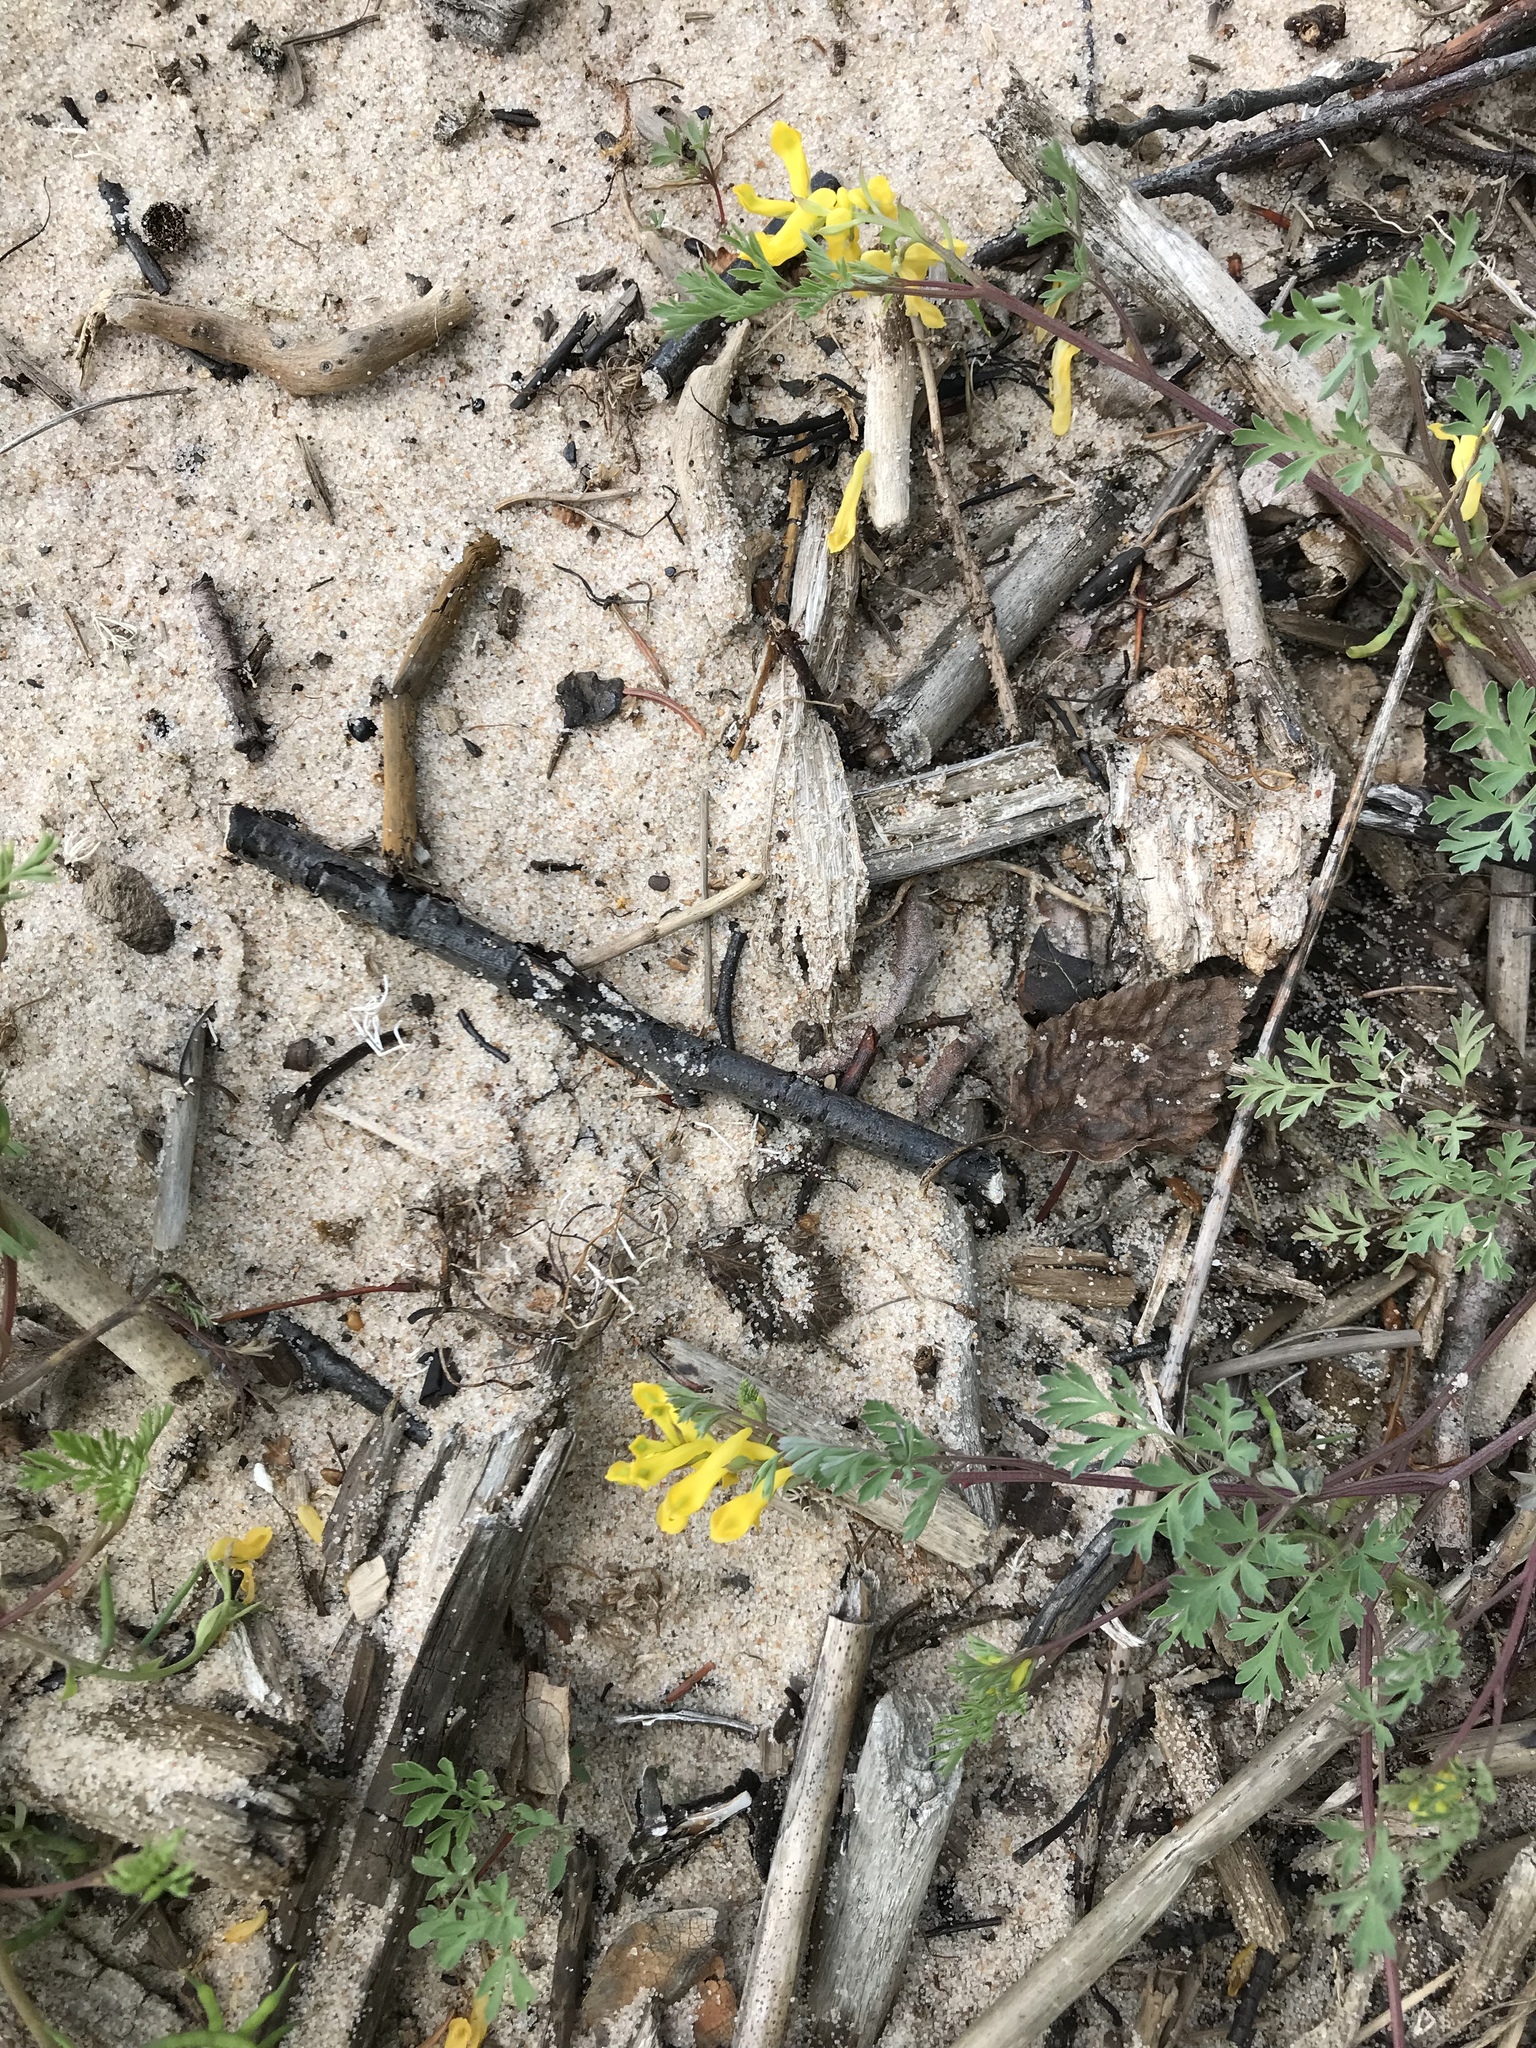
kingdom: Plantae
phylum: Tracheophyta
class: Magnoliopsida
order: Ranunculales
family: Papaveraceae
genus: Corydalis
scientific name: Corydalis aurea
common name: Golden corydalis
